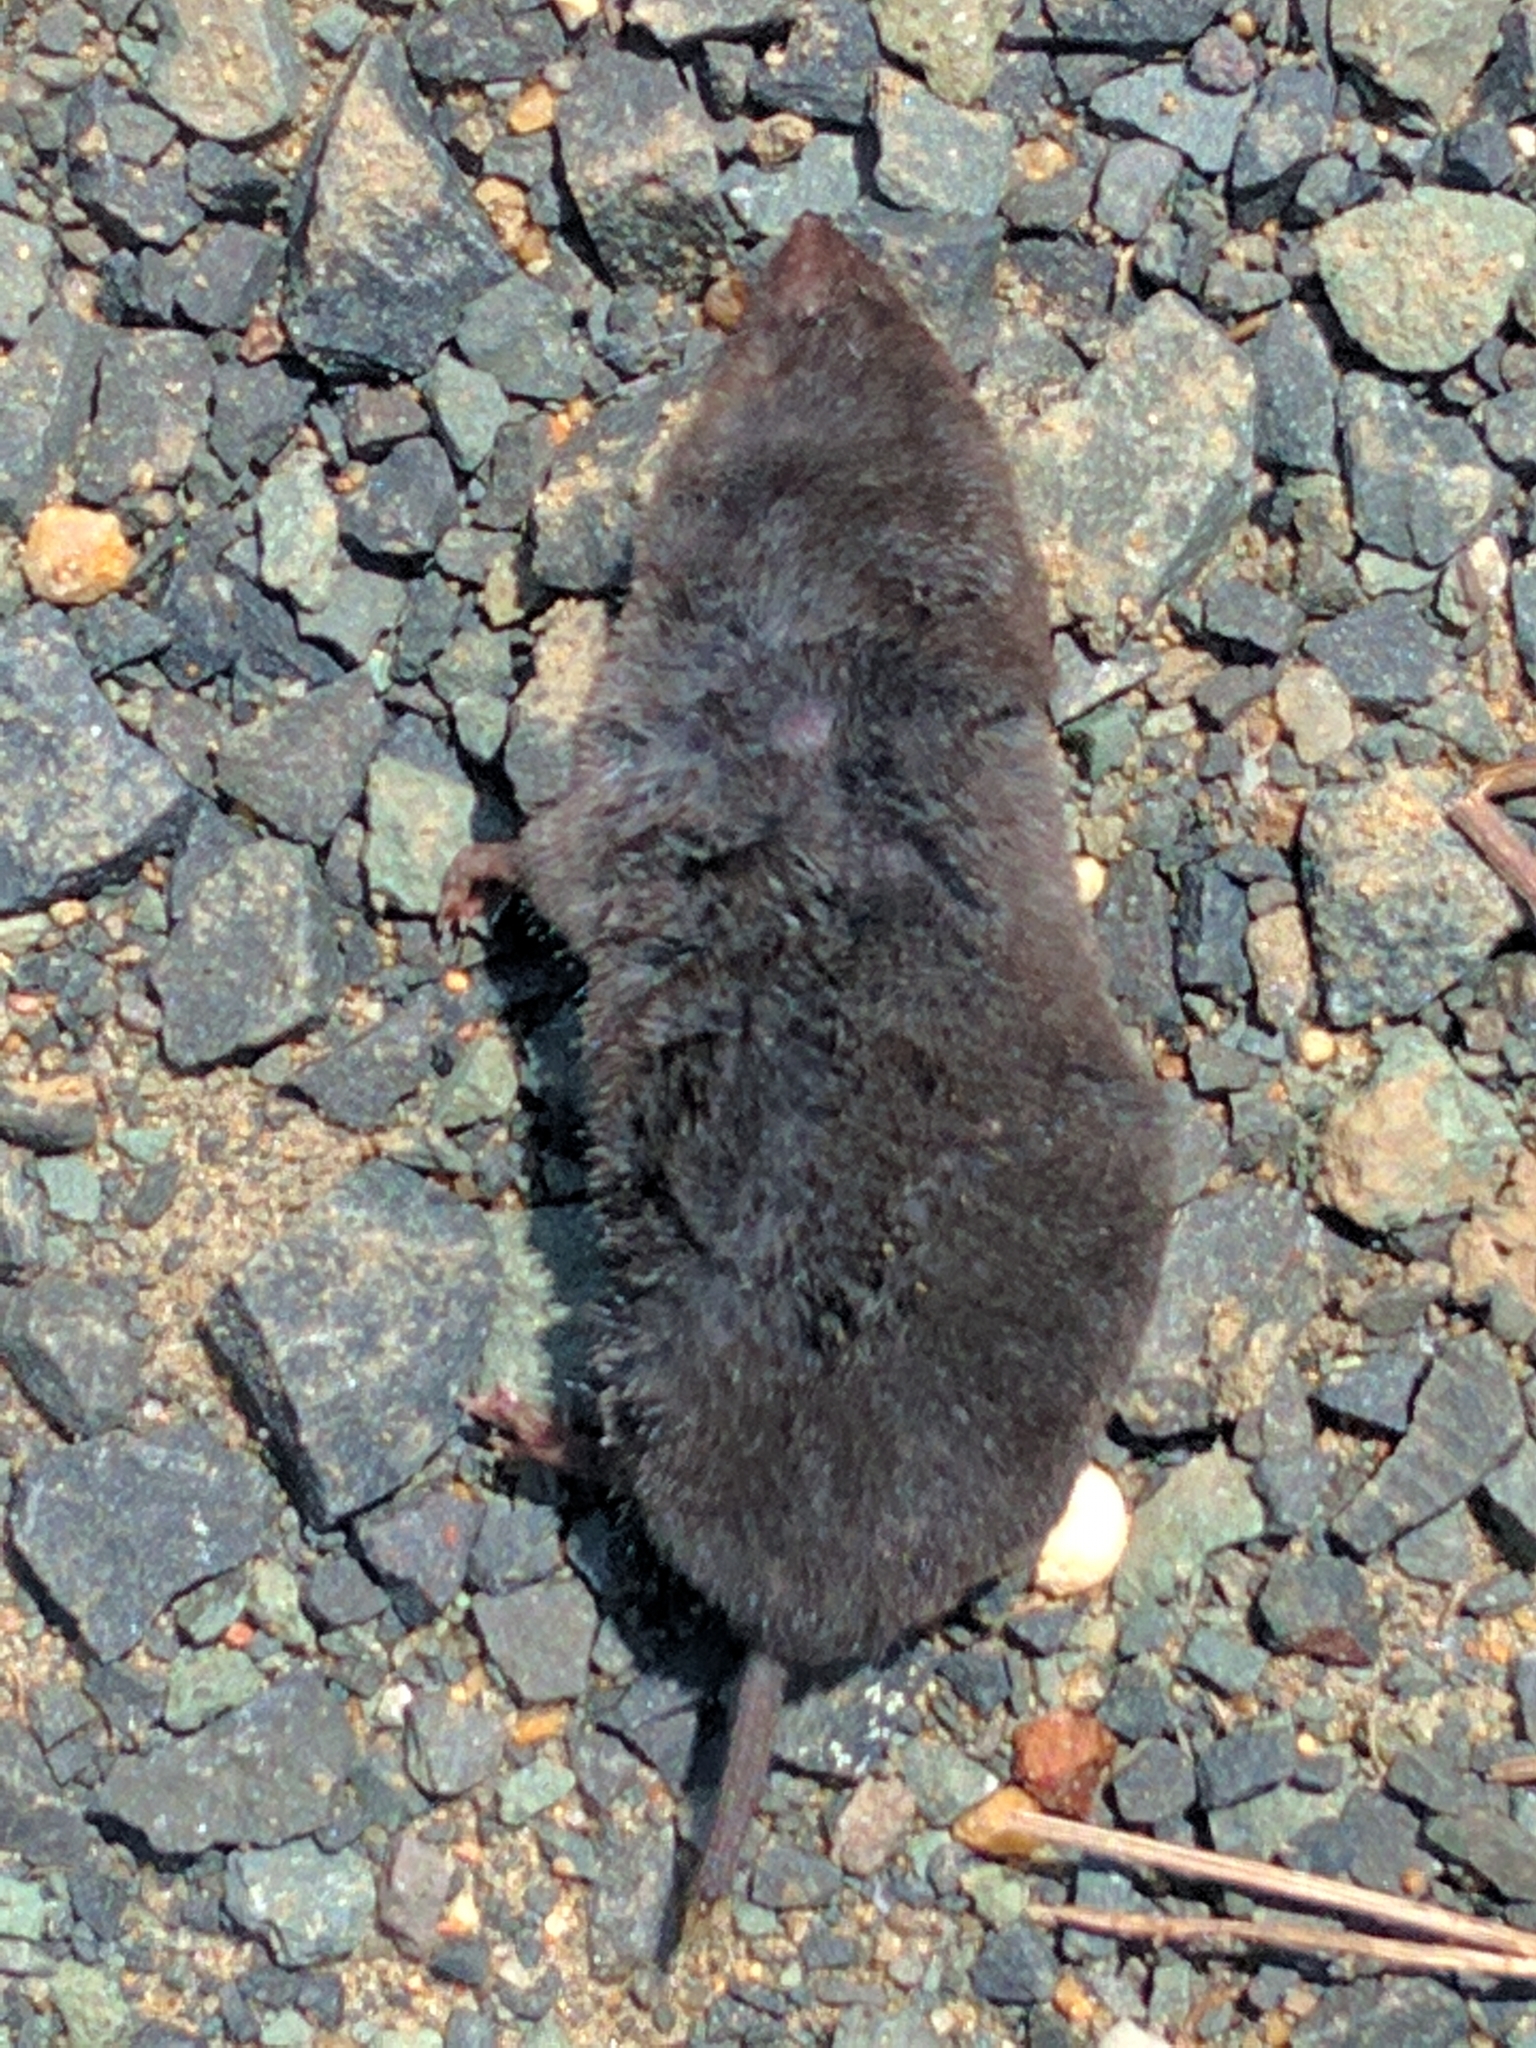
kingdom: Animalia
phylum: Chordata
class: Mammalia
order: Soricomorpha
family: Soricidae
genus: Blarina
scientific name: Blarina brevicauda
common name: Northern short-tailed shrew
